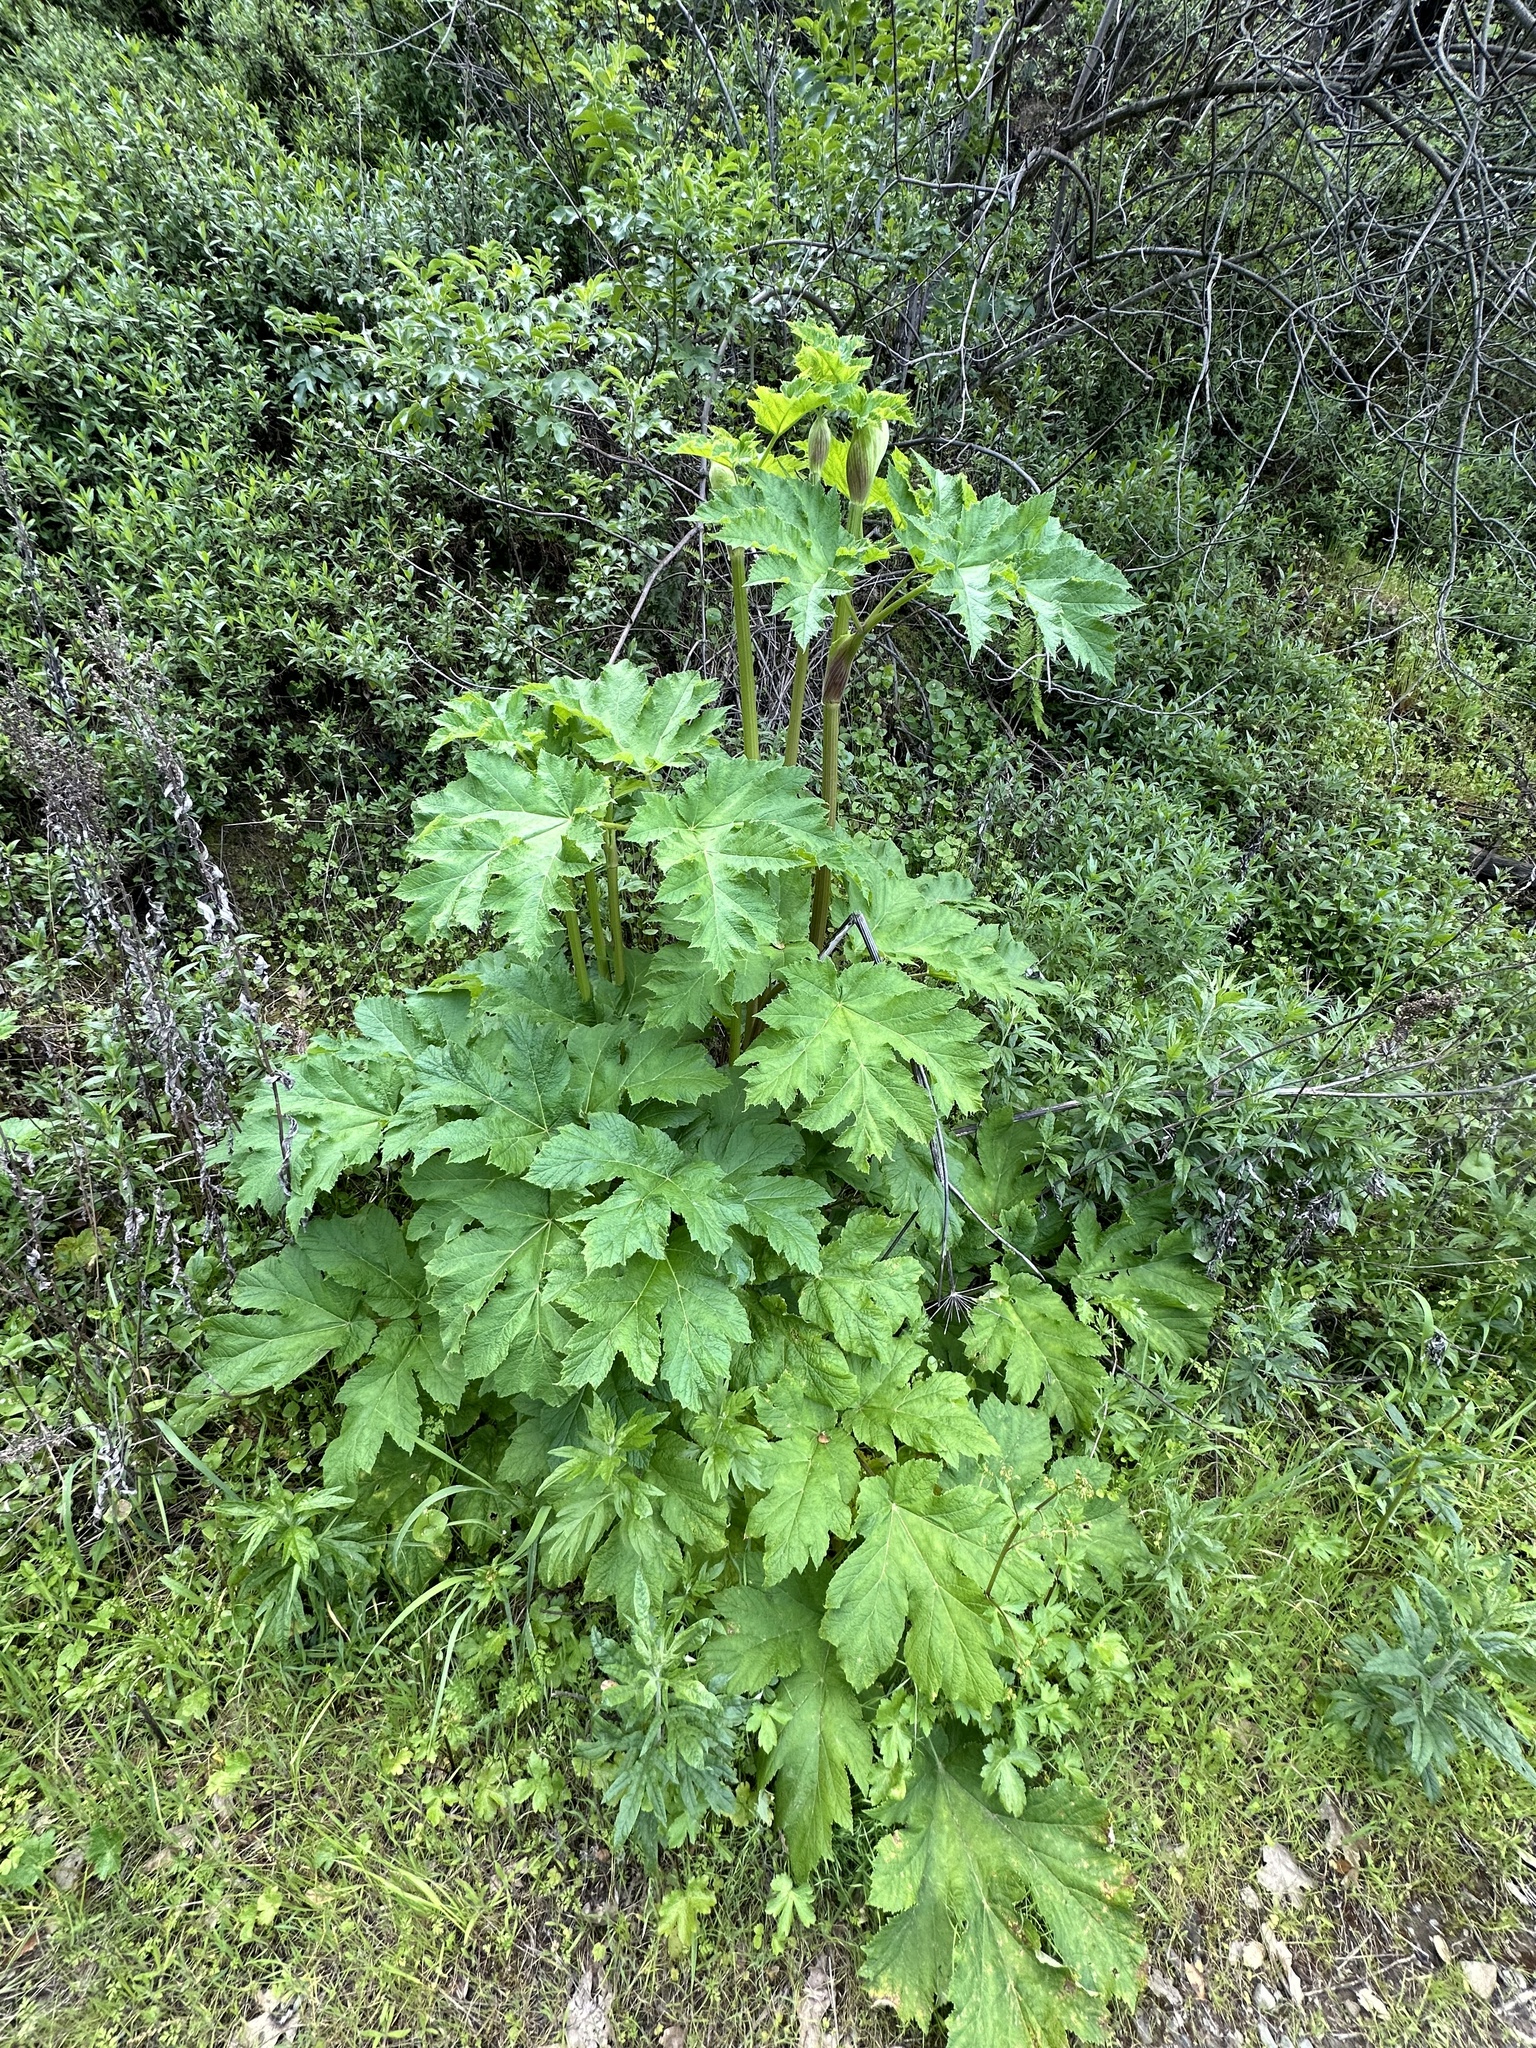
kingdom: Plantae
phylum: Tracheophyta
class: Magnoliopsida
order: Apiales
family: Apiaceae
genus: Heracleum
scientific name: Heracleum maximum
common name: American cow parsnip
